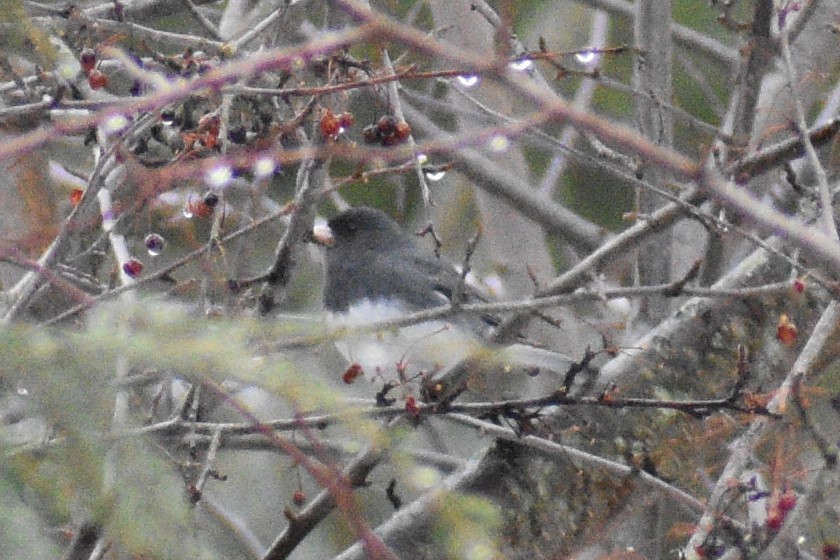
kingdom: Animalia
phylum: Chordata
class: Aves
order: Passeriformes
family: Passerellidae
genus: Junco
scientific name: Junco hyemalis
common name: Dark-eyed junco
